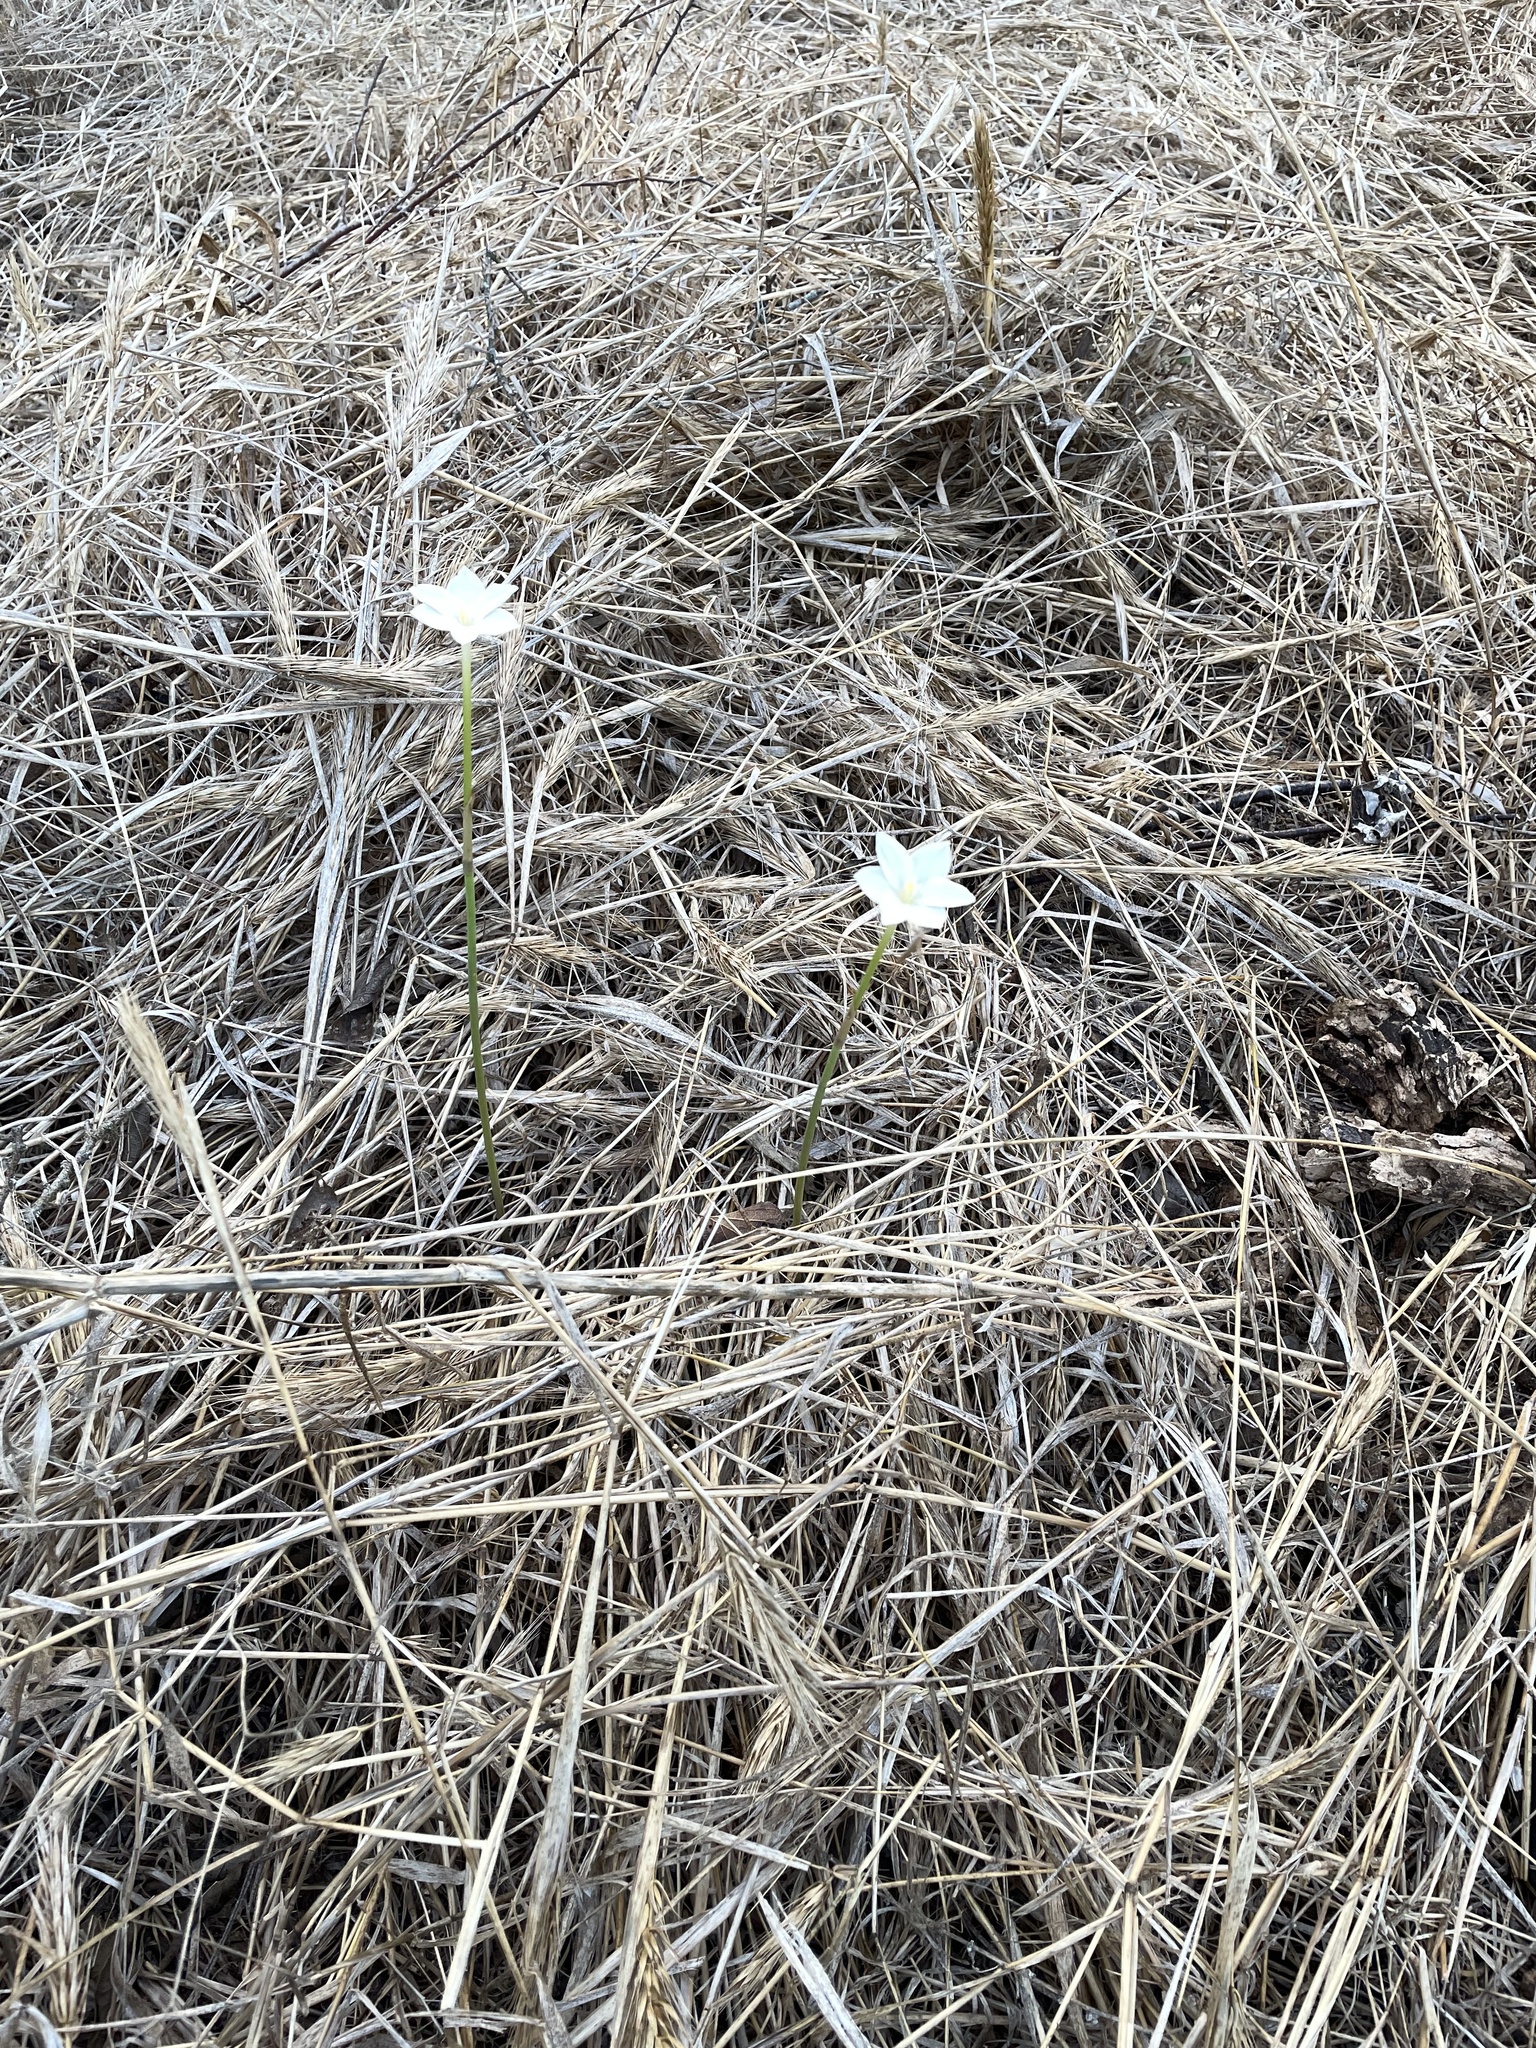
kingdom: Plantae
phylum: Tracheophyta
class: Liliopsida
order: Asparagales
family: Amaryllidaceae
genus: Zephyranthes
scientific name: Zephyranthes chlorosolen
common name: Evening rain-lily
